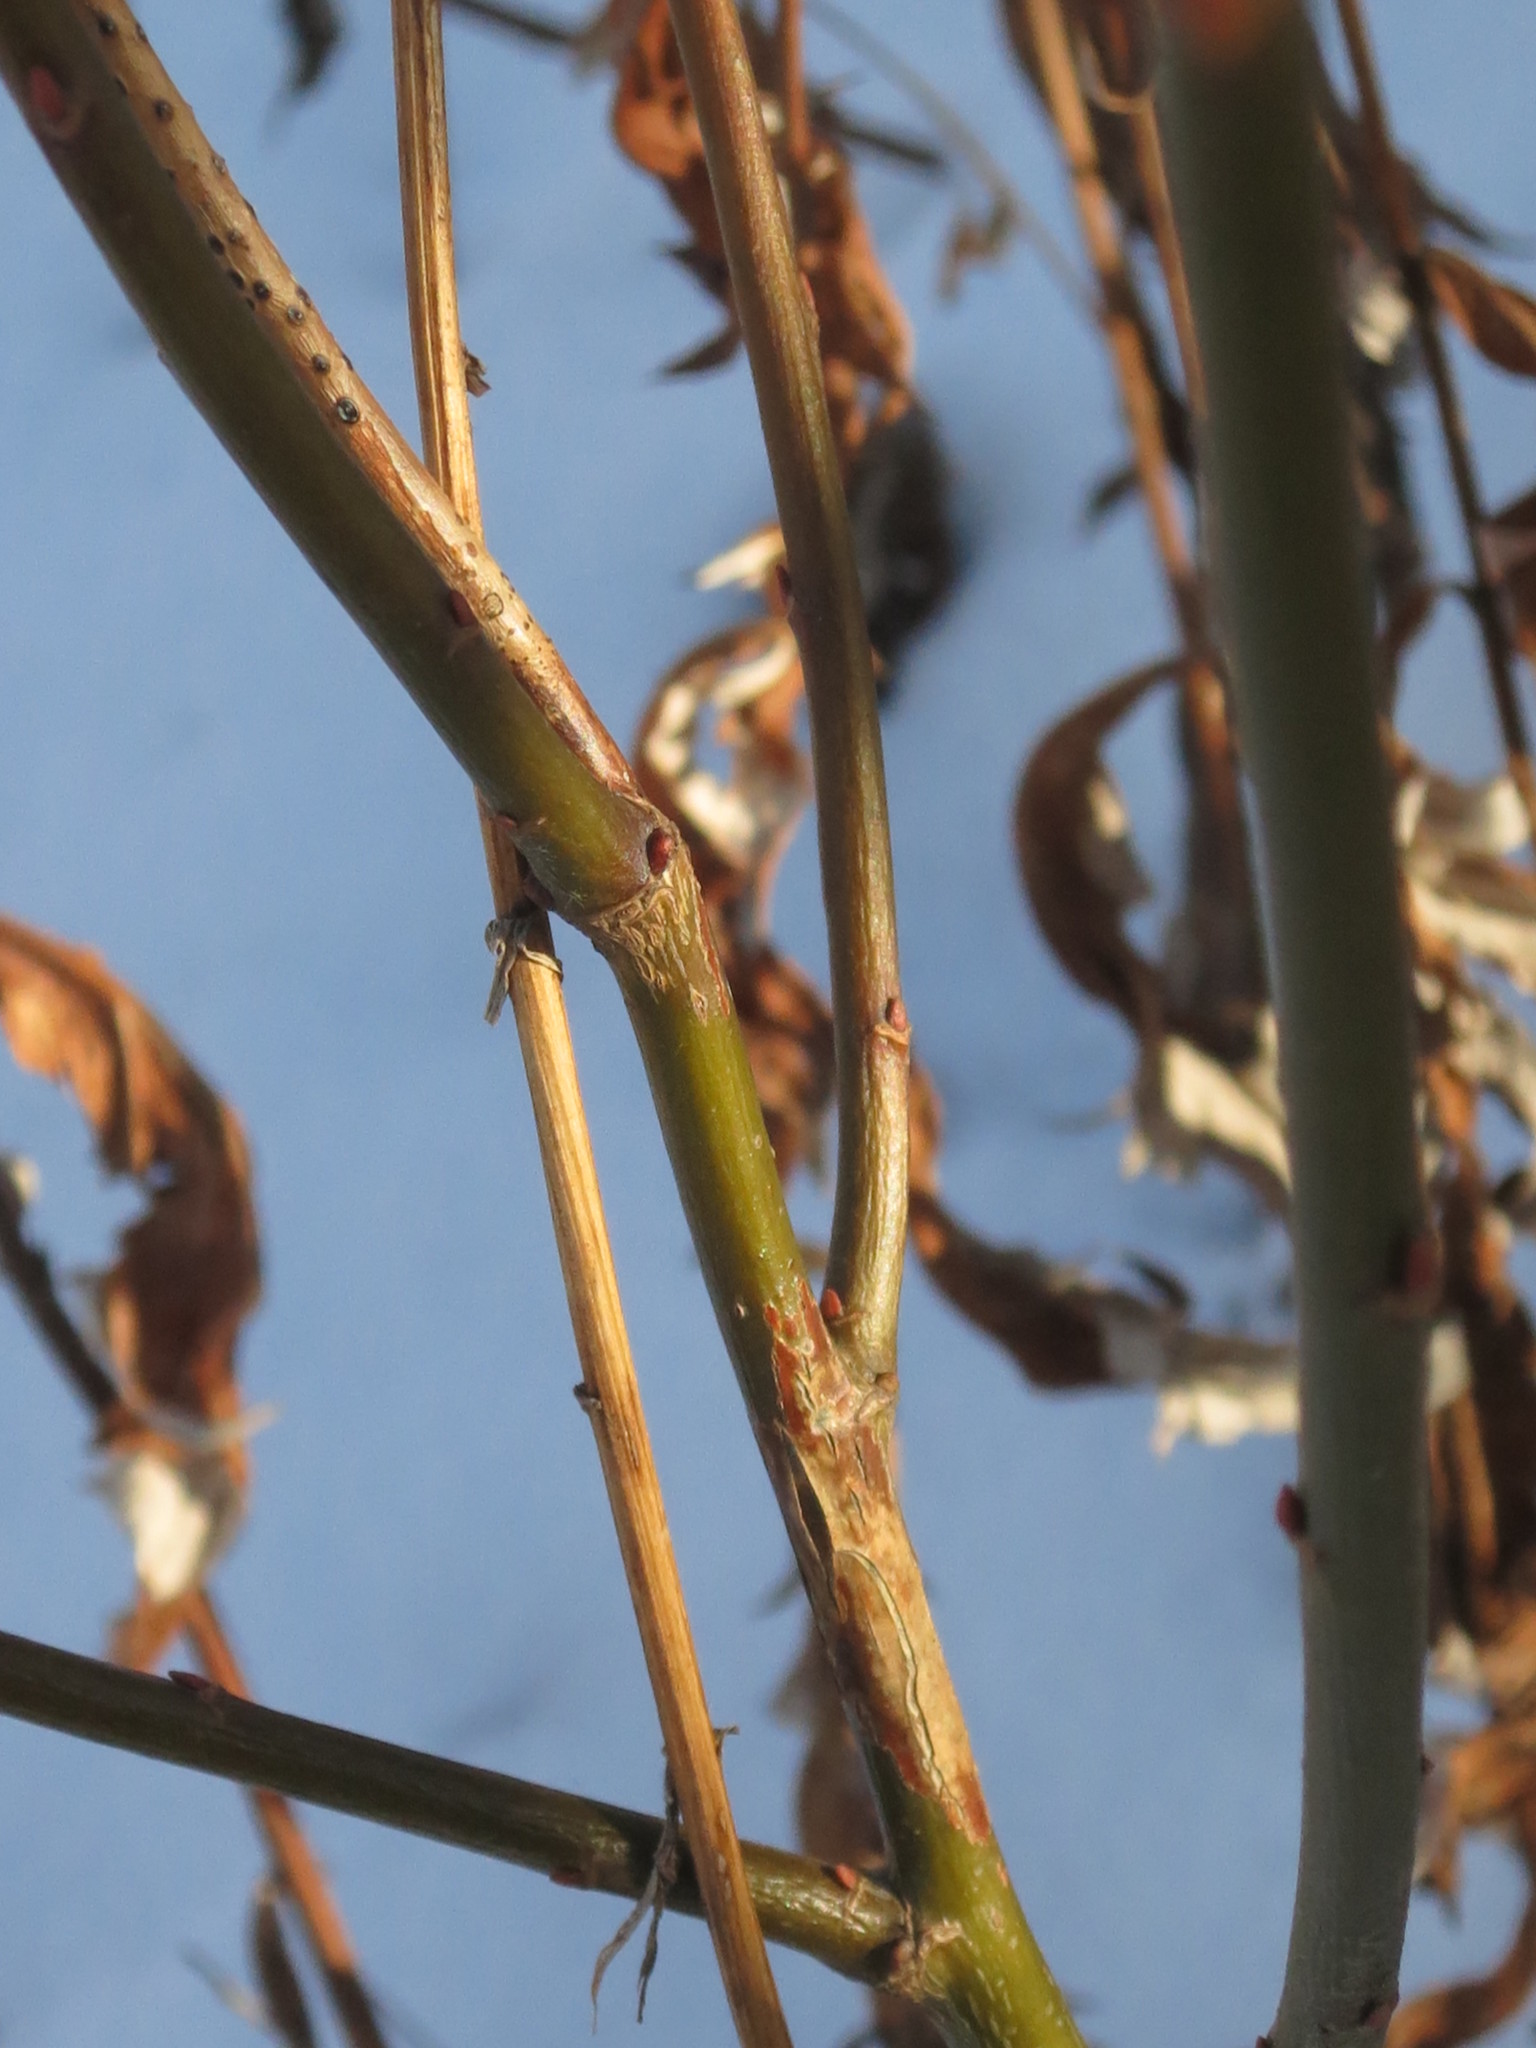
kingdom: Plantae
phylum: Tracheophyta
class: Magnoliopsida
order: Malpighiales
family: Salicaceae
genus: Salix
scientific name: Salix caprea
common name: Goat willow
